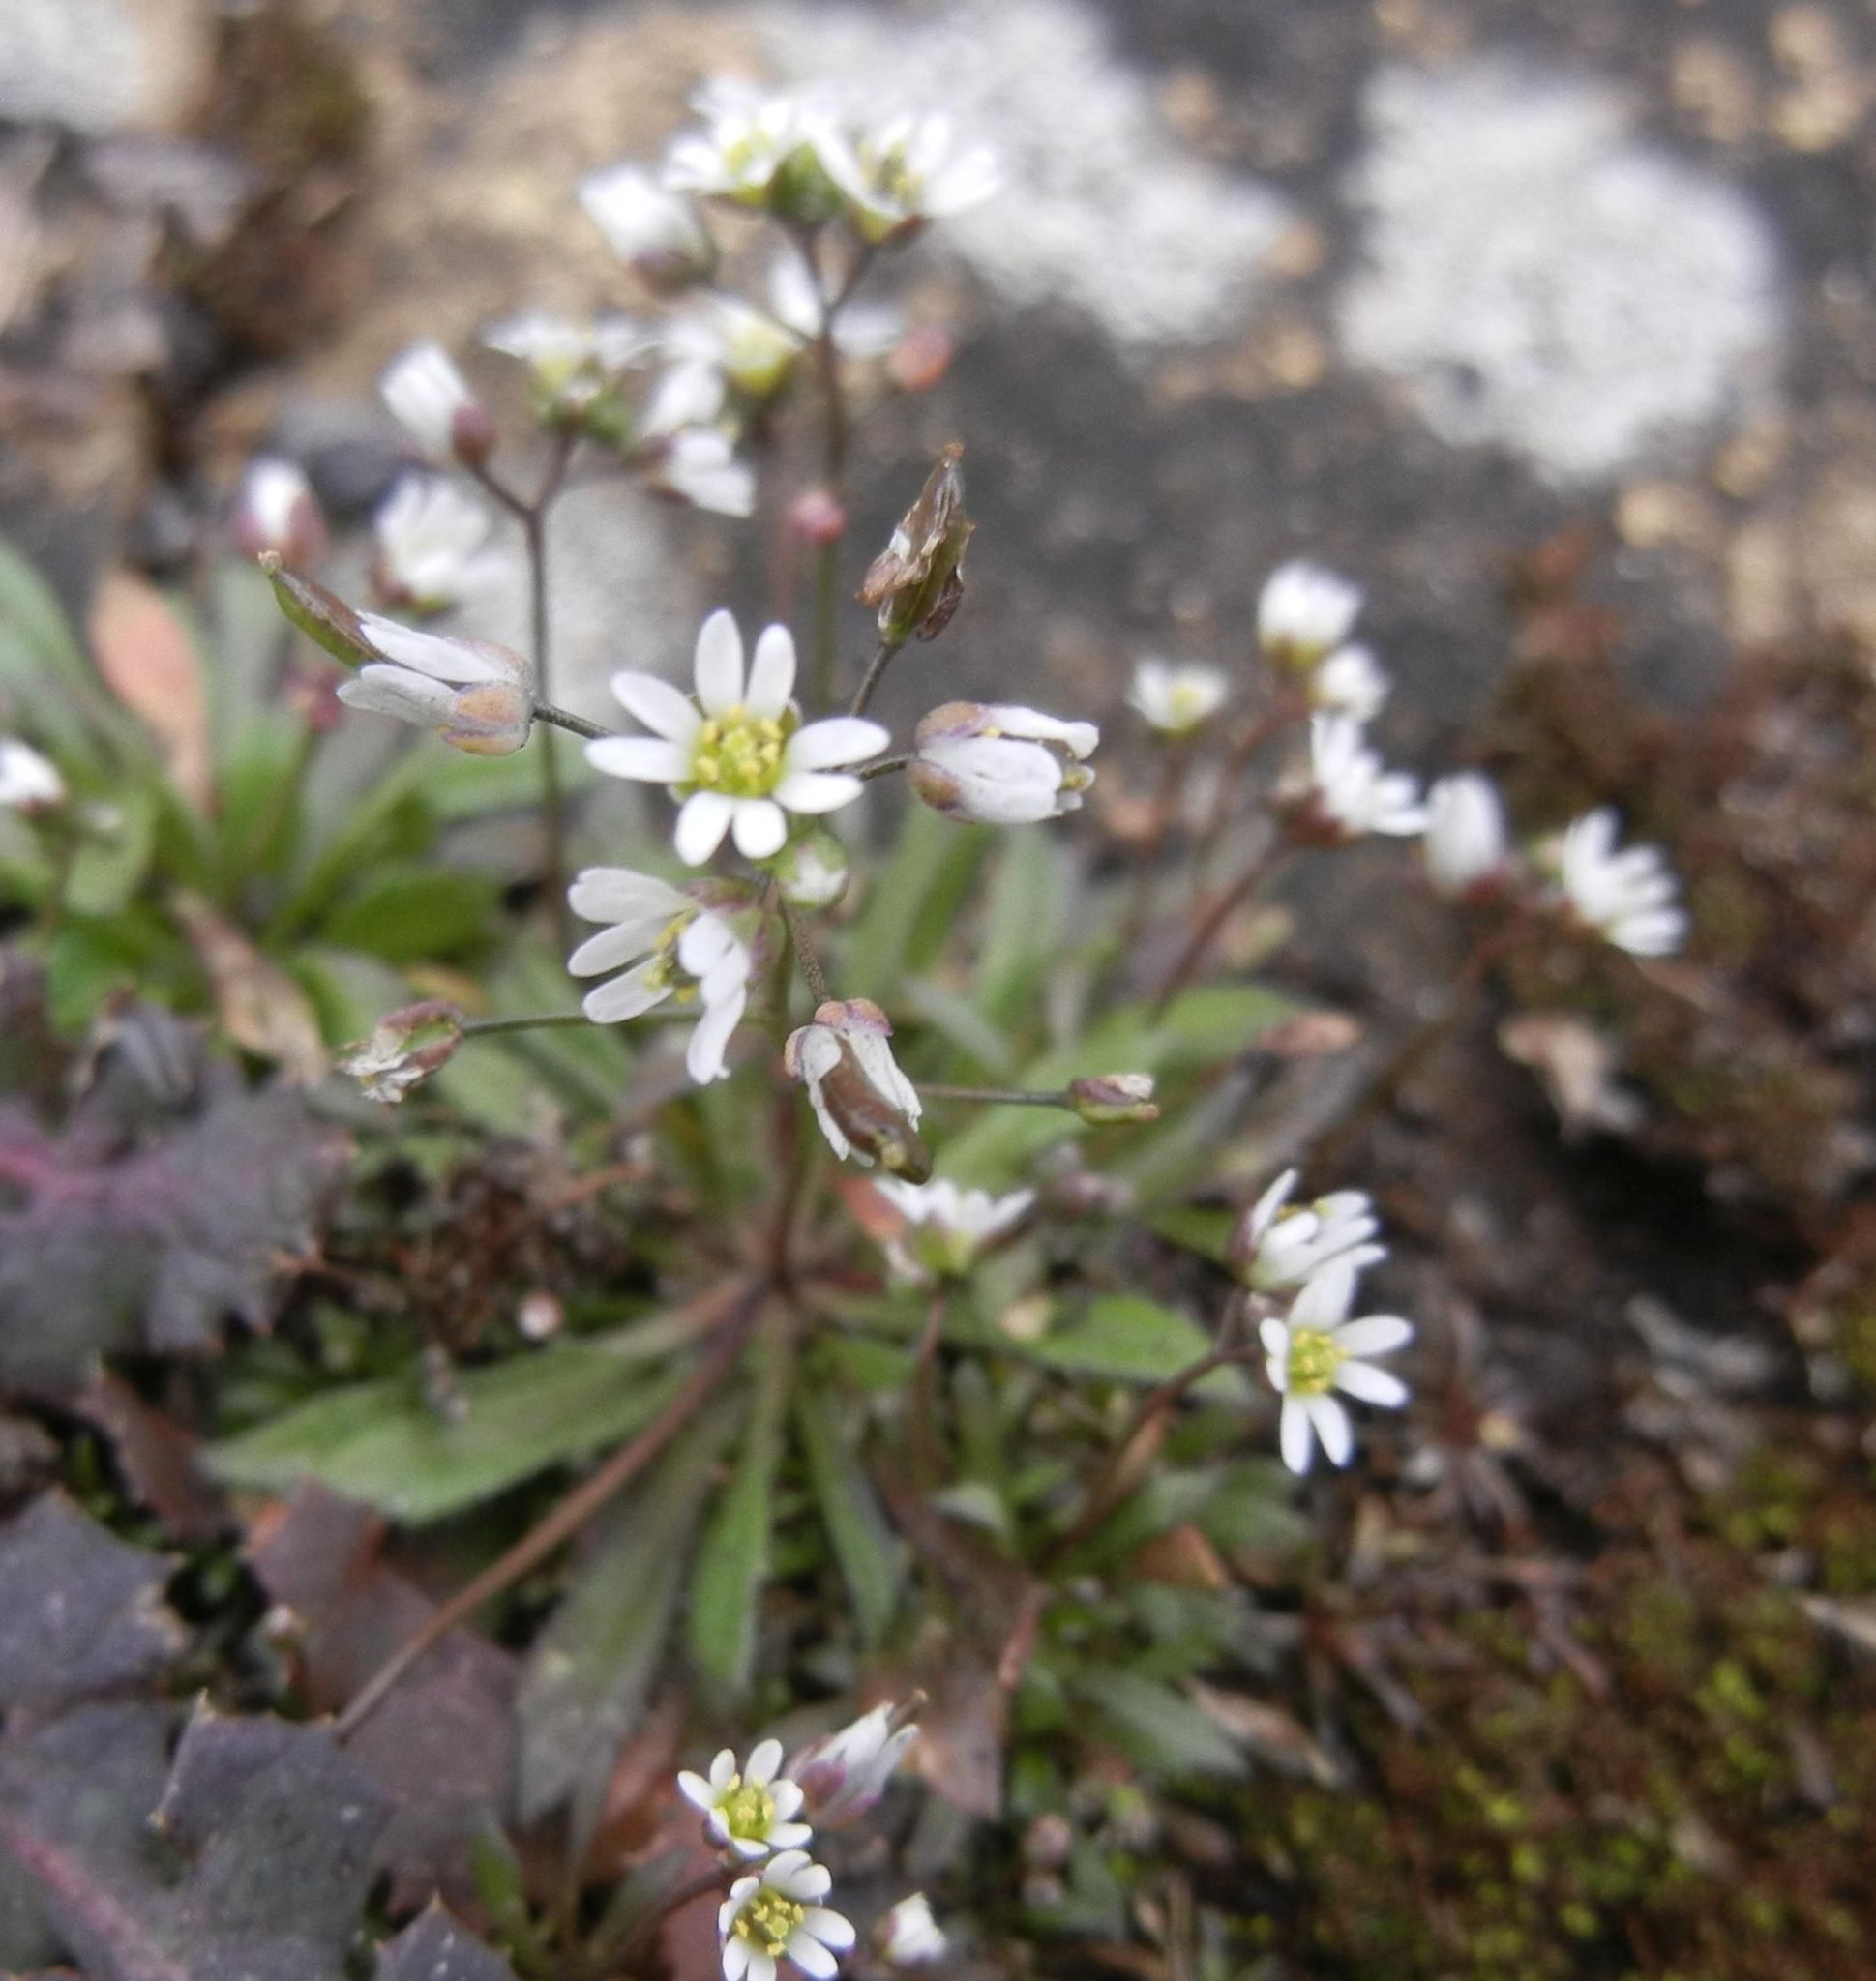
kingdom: Plantae
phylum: Tracheophyta
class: Magnoliopsida
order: Brassicales
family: Brassicaceae
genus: Draba
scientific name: Draba verna
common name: Spring draba
